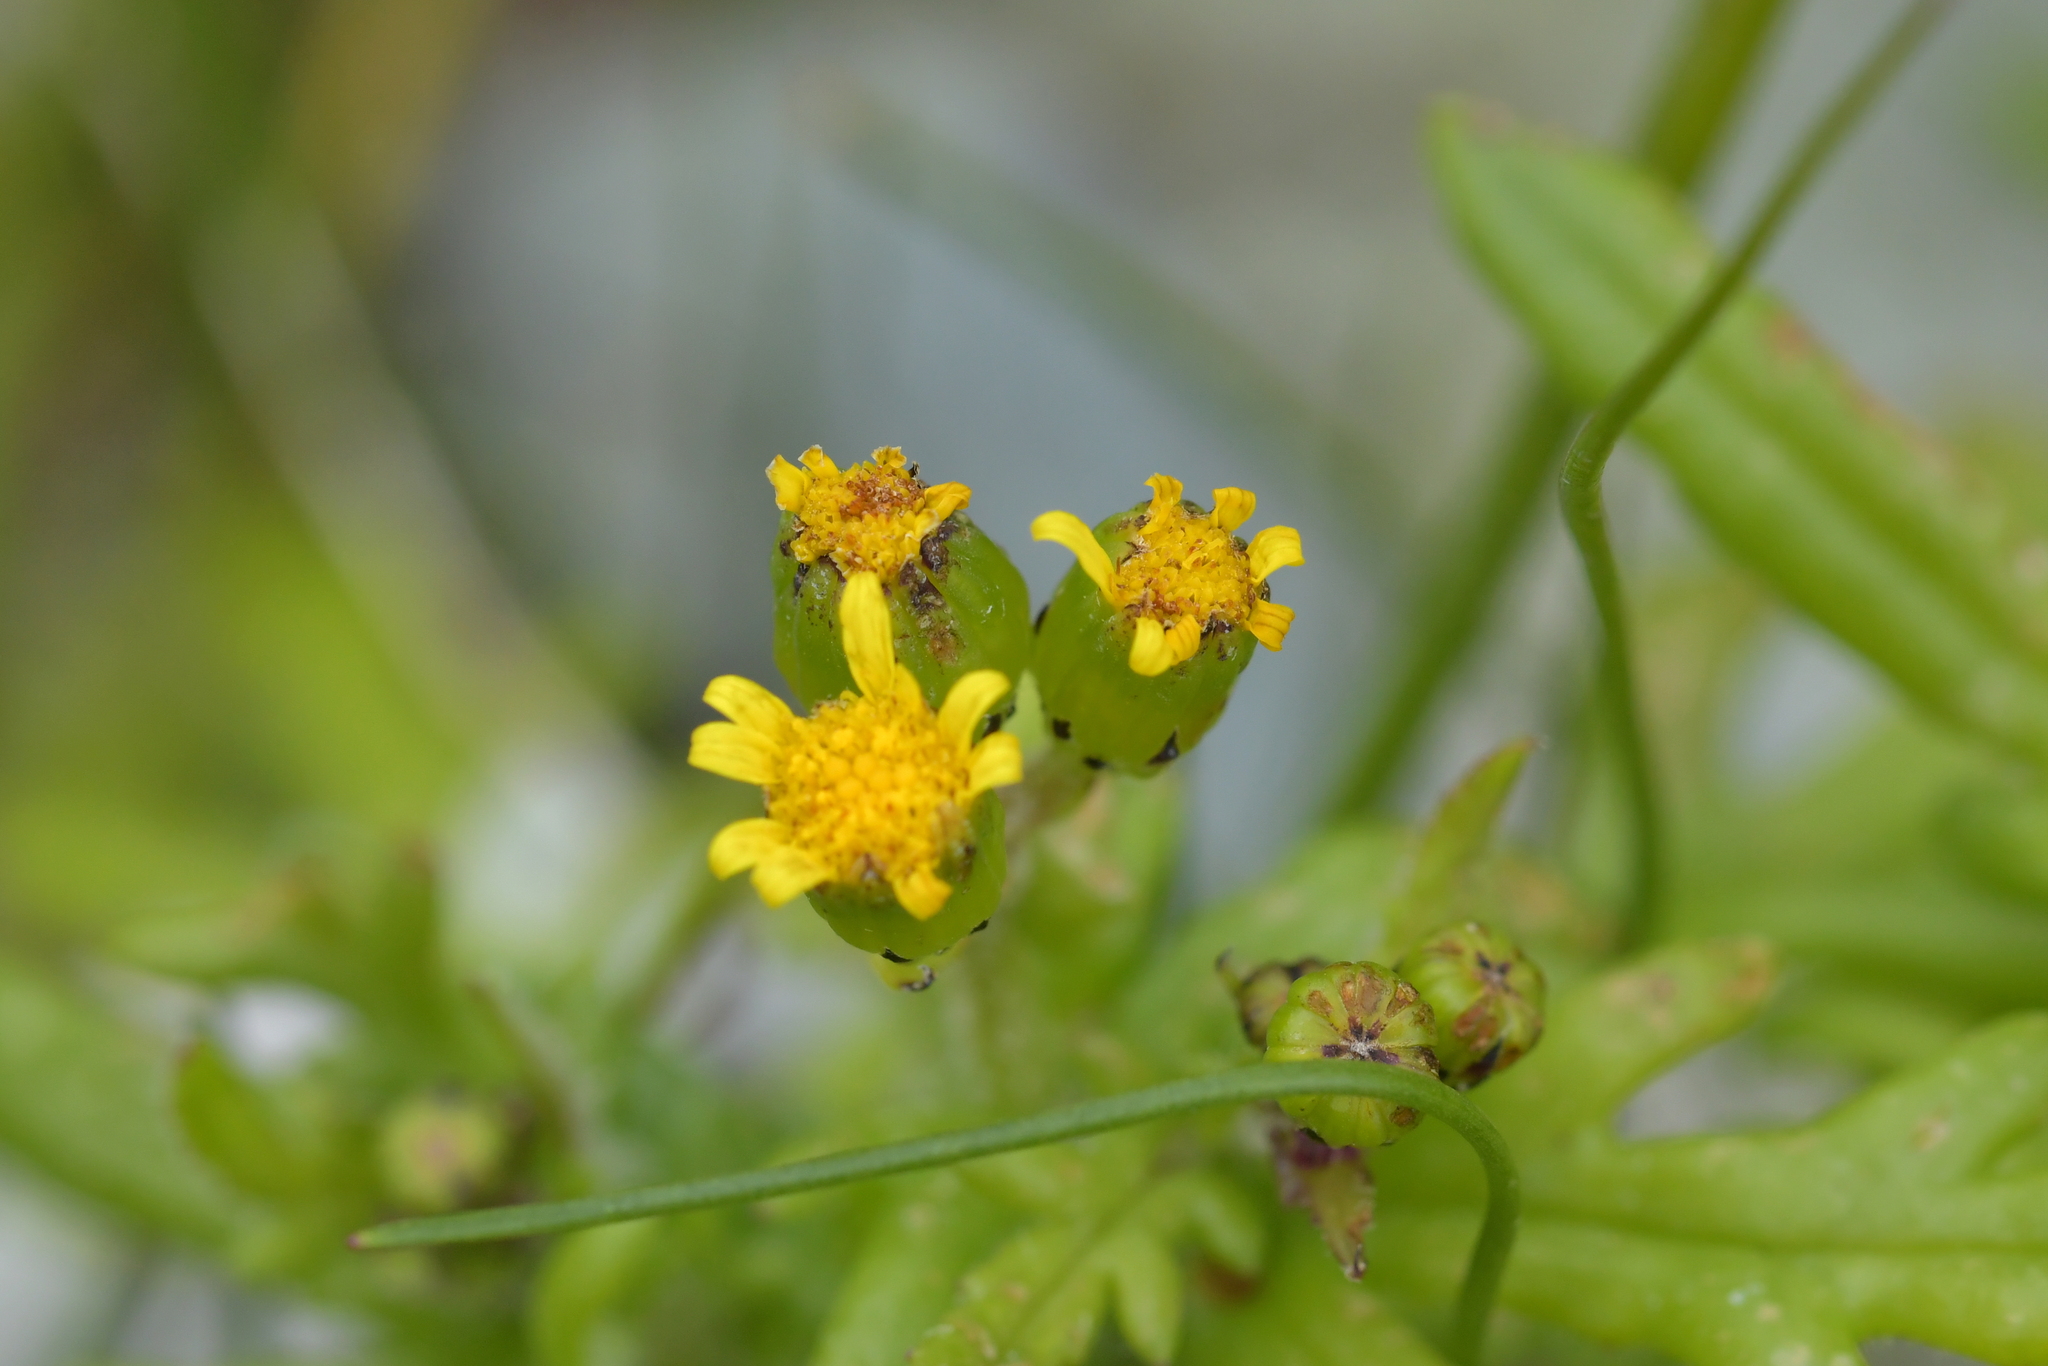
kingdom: Plantae
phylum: Tracheophyta
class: Magnoliopsida
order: Asterales
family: Asteraceae
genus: Senecio
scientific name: Senecio lautus
